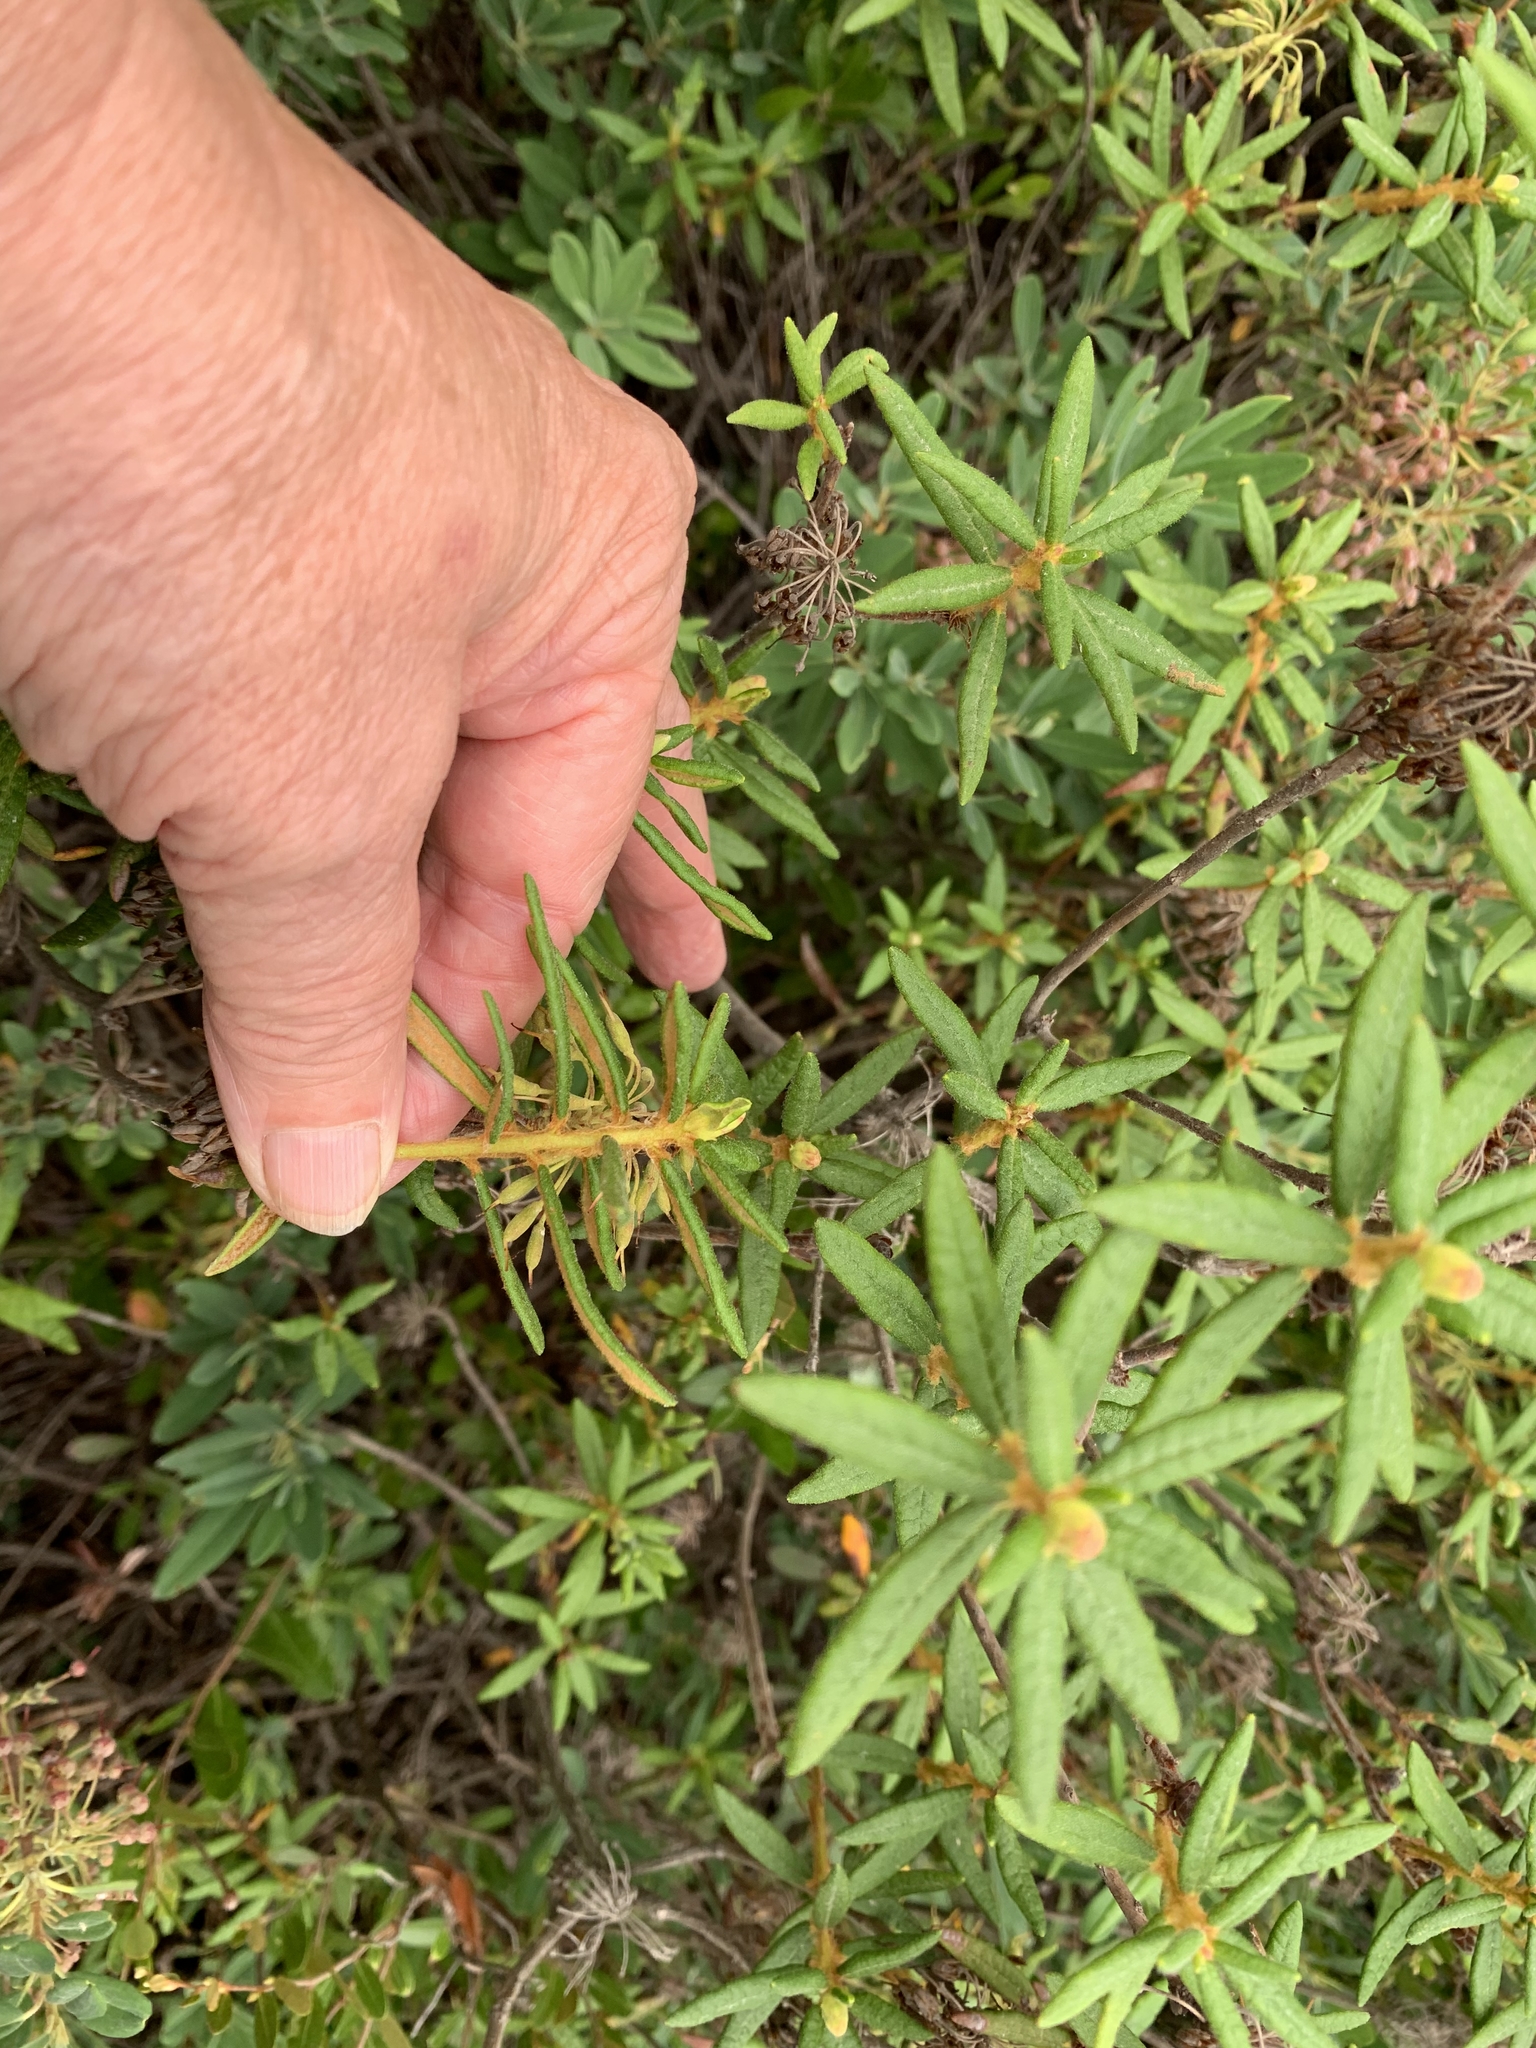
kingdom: Plantae
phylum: Tracheophyta
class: Magnoliopsida
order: Ericales
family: Ericaceae
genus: Rhododendron
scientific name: Rhododendron groenlandicum
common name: Bog labrador tea
